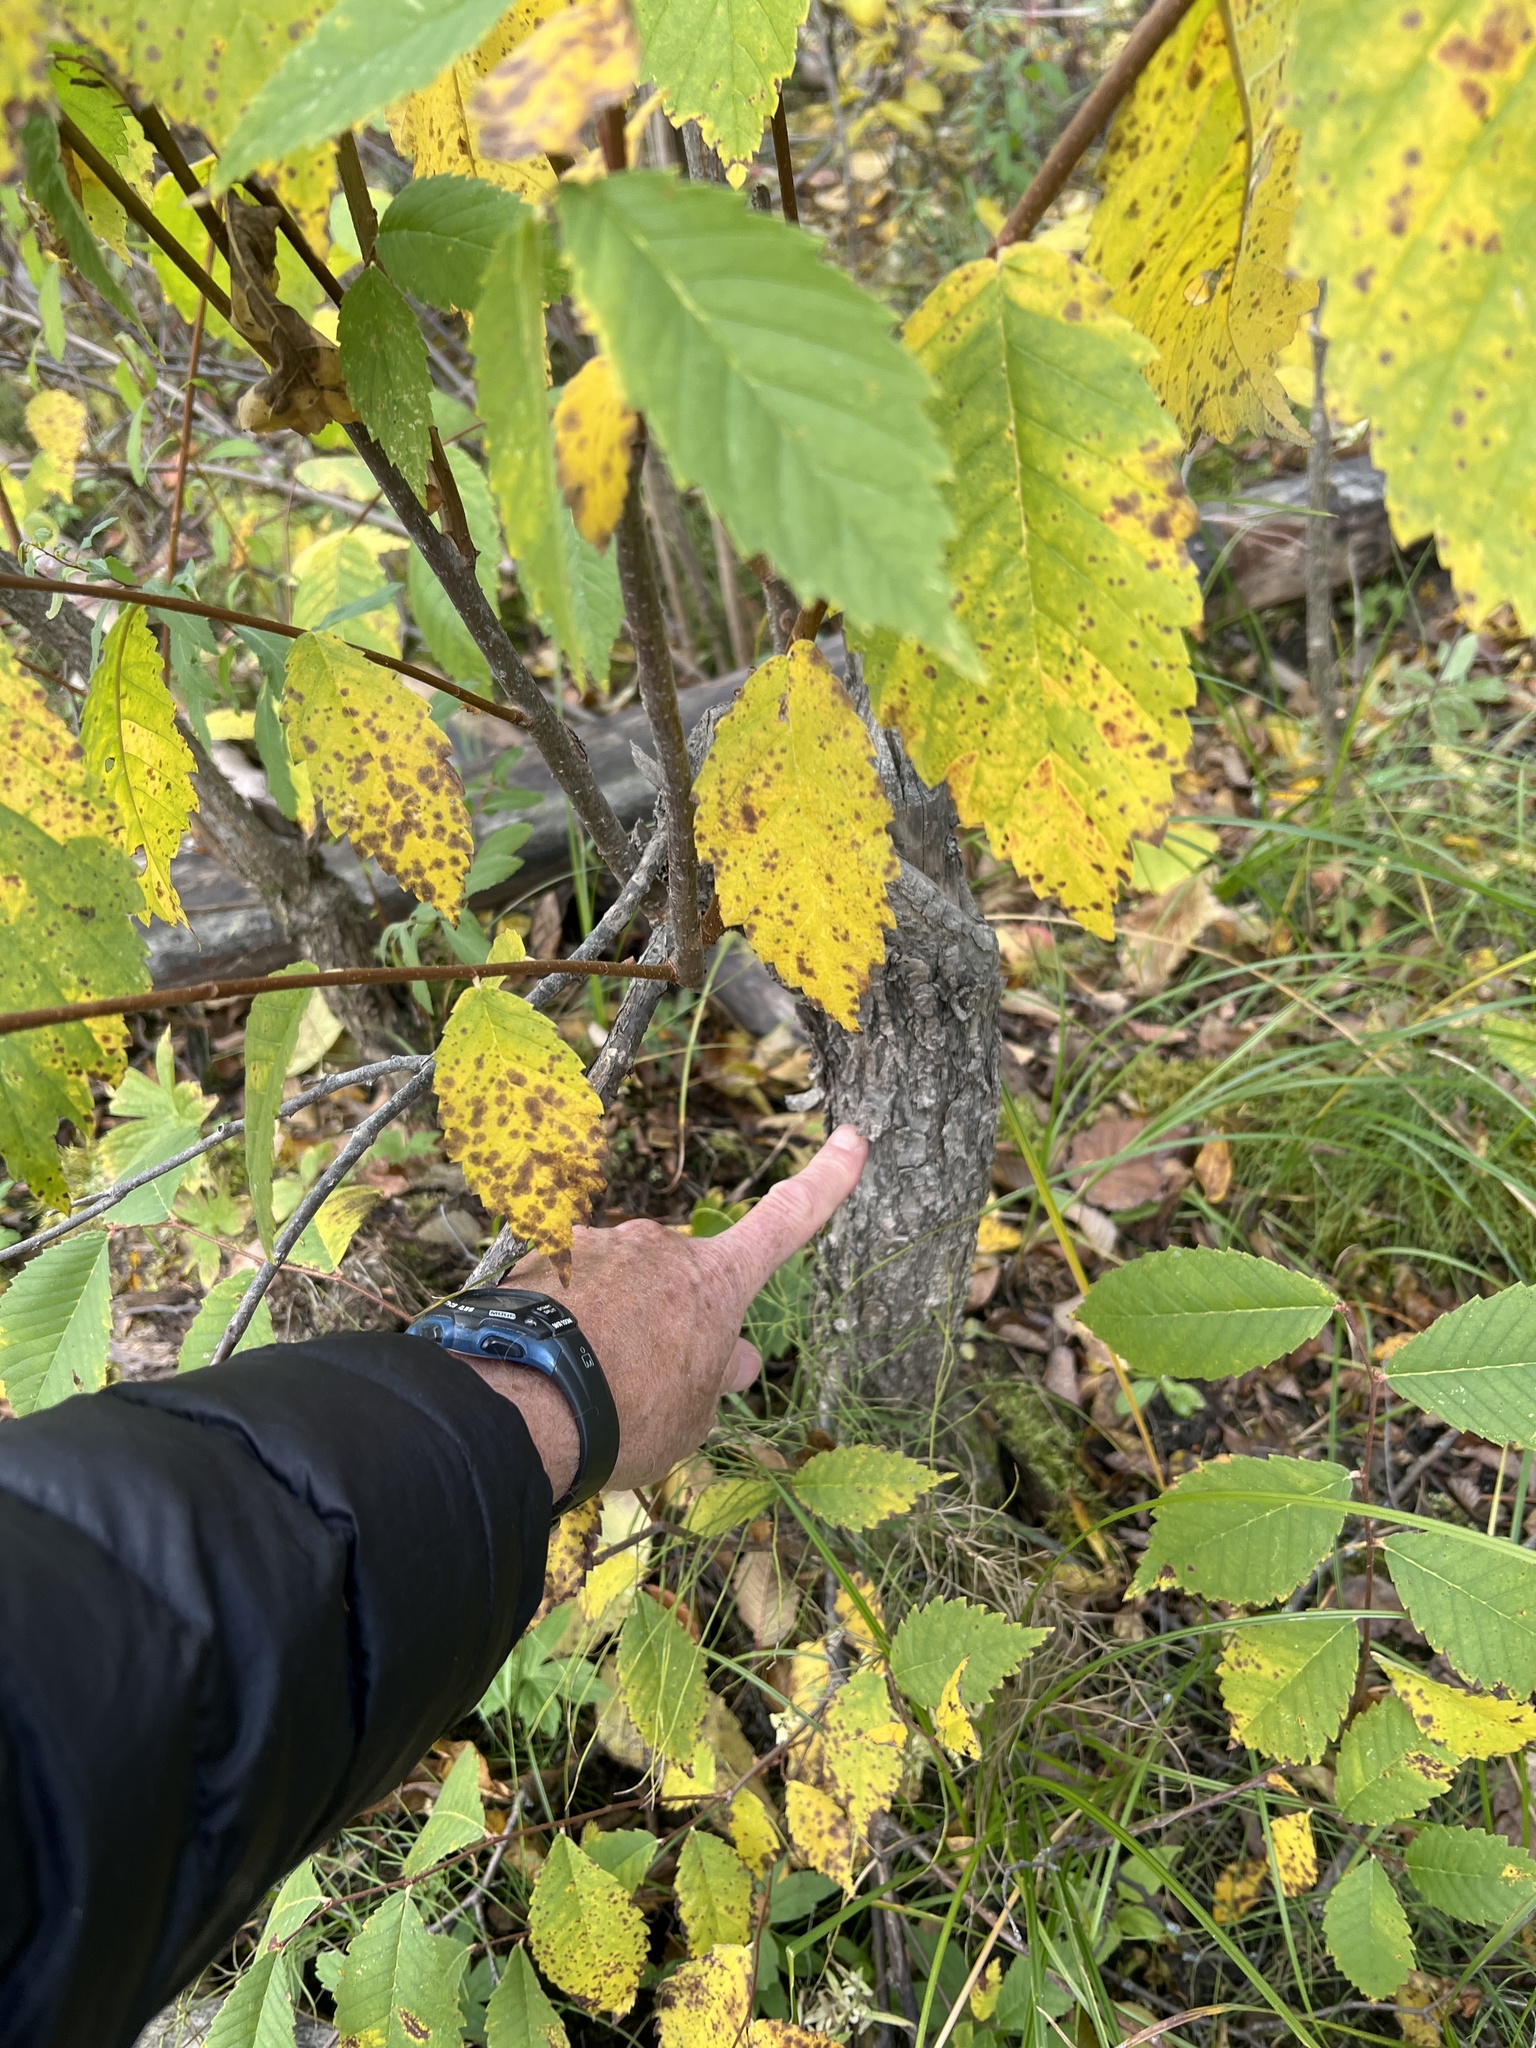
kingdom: Plantae
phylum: Tracheophyta
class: Magnoliopsida
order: Rosales
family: Ulmaceae
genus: Ulmus
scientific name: Ulmus americana
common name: American elm
